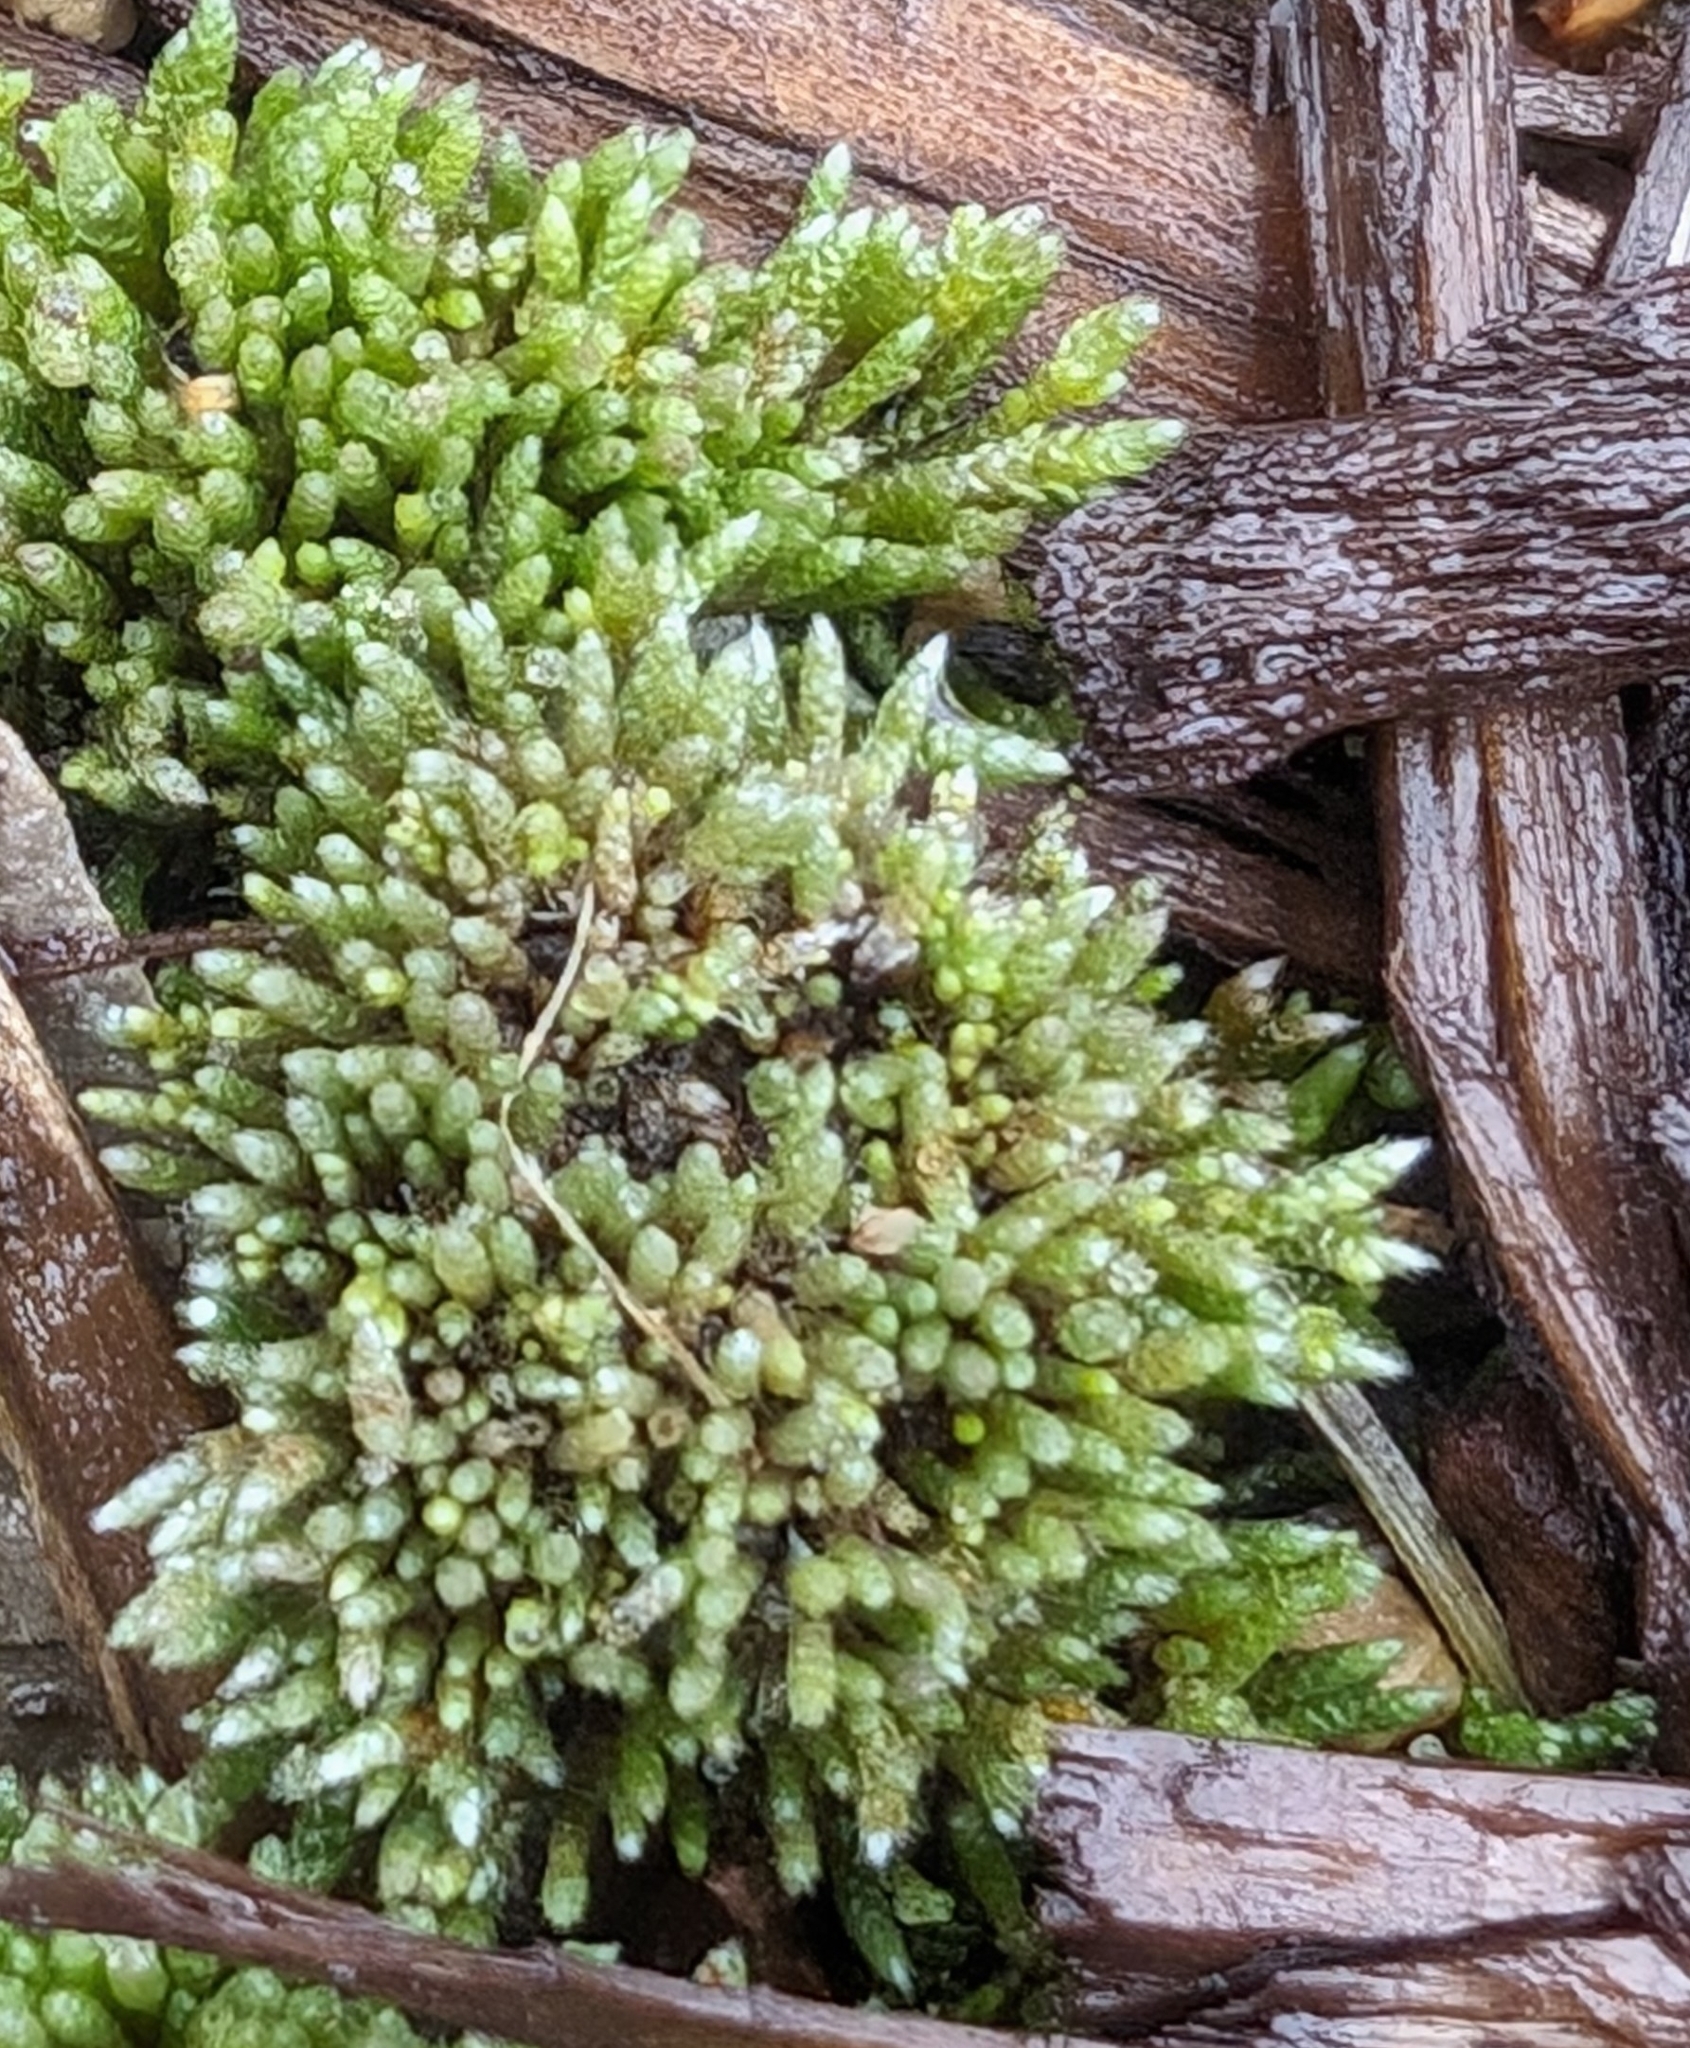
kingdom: Plantae
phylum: Bryophyta
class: Bryopsida
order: Bryales
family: Bryaceae
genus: Bryum
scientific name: Bryum argenteum
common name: Silver-moss
